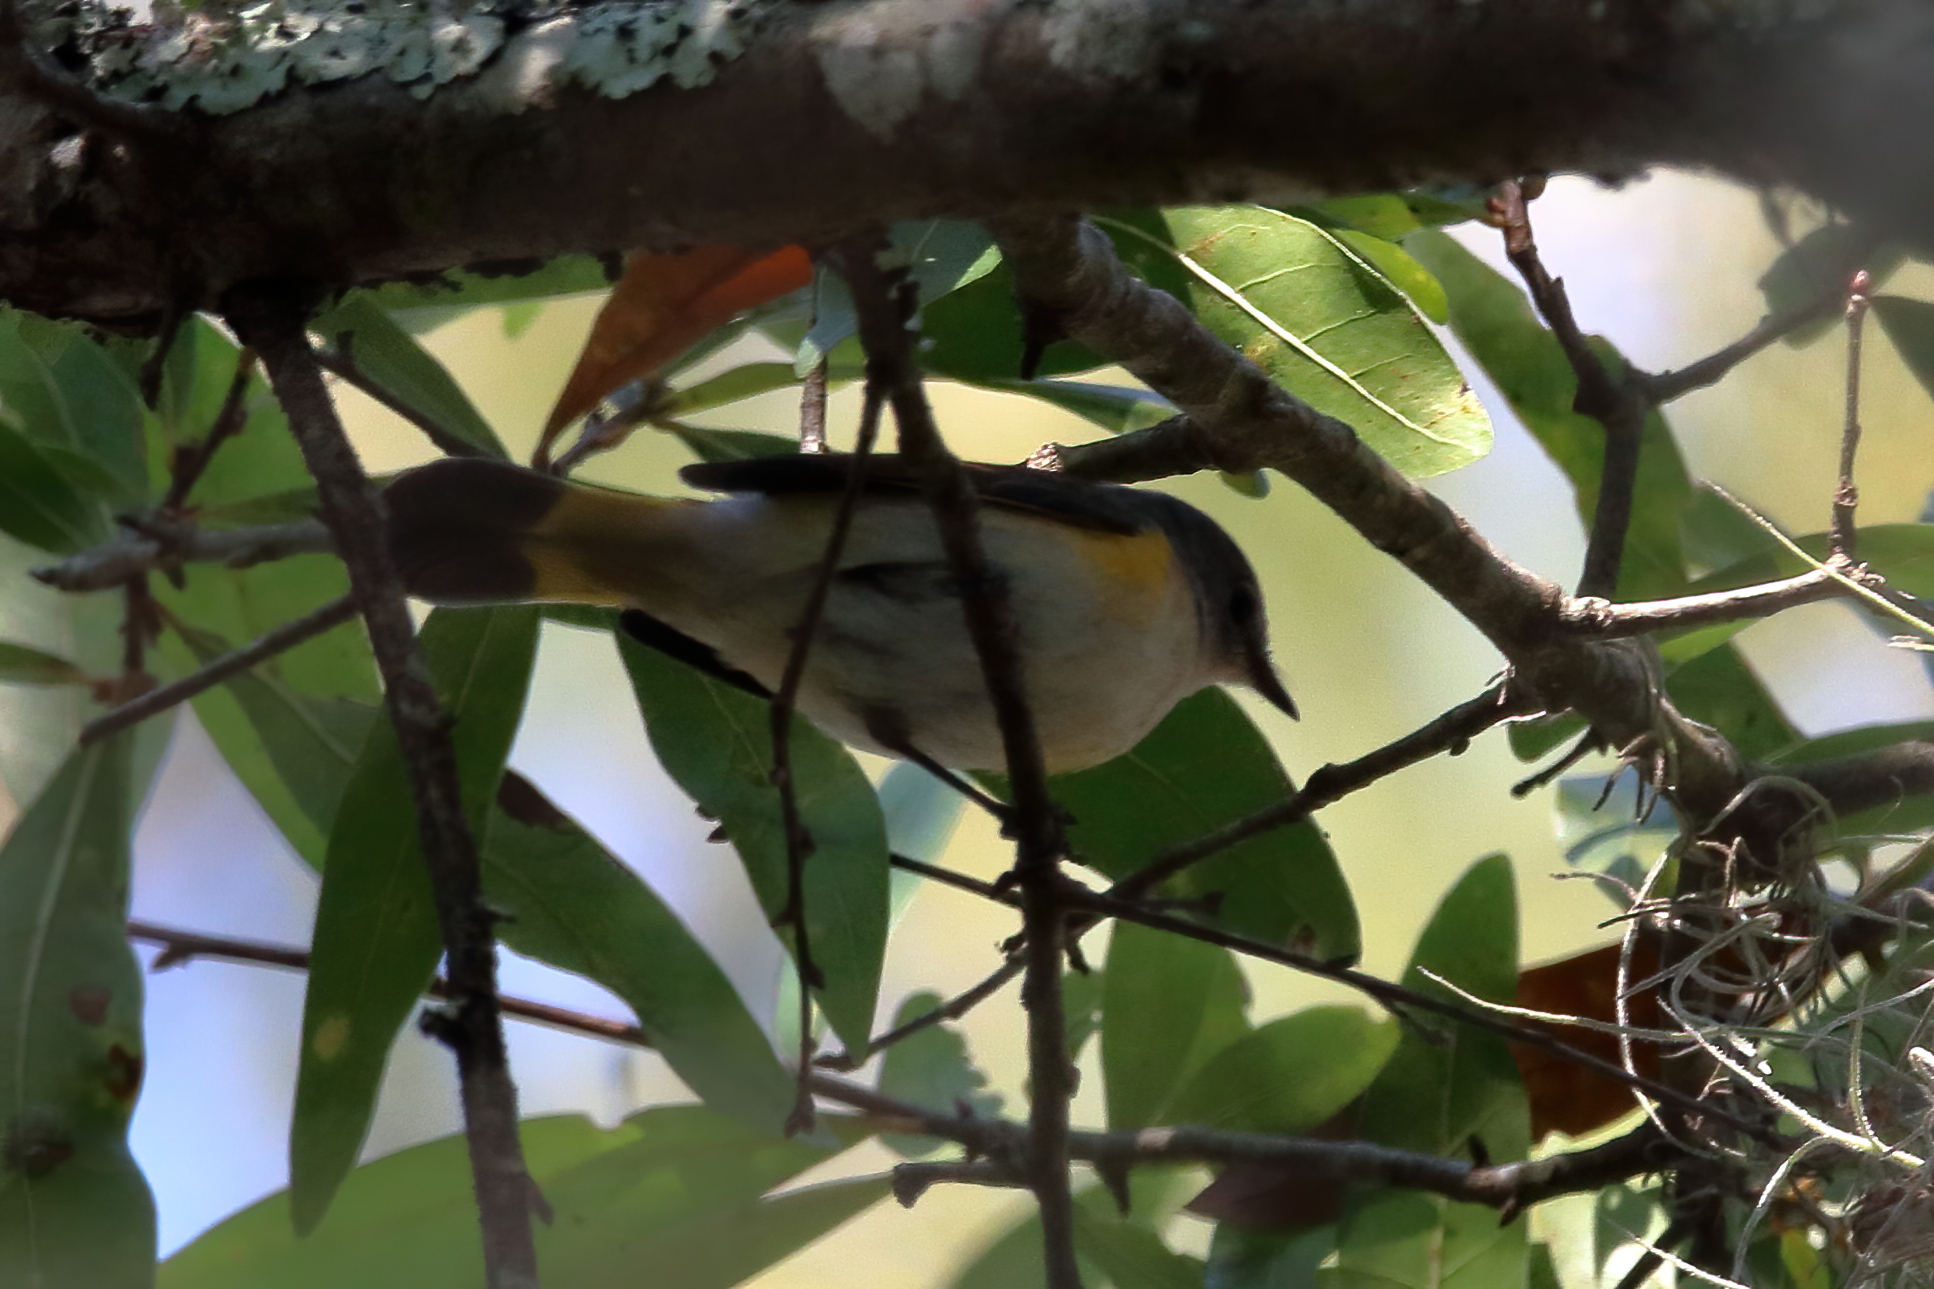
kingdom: Animalia
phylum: Chordata
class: Aves
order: Passeriformes
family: Parulidae
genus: Setophaga
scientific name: Setophaga ruticilla
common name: American redstart
